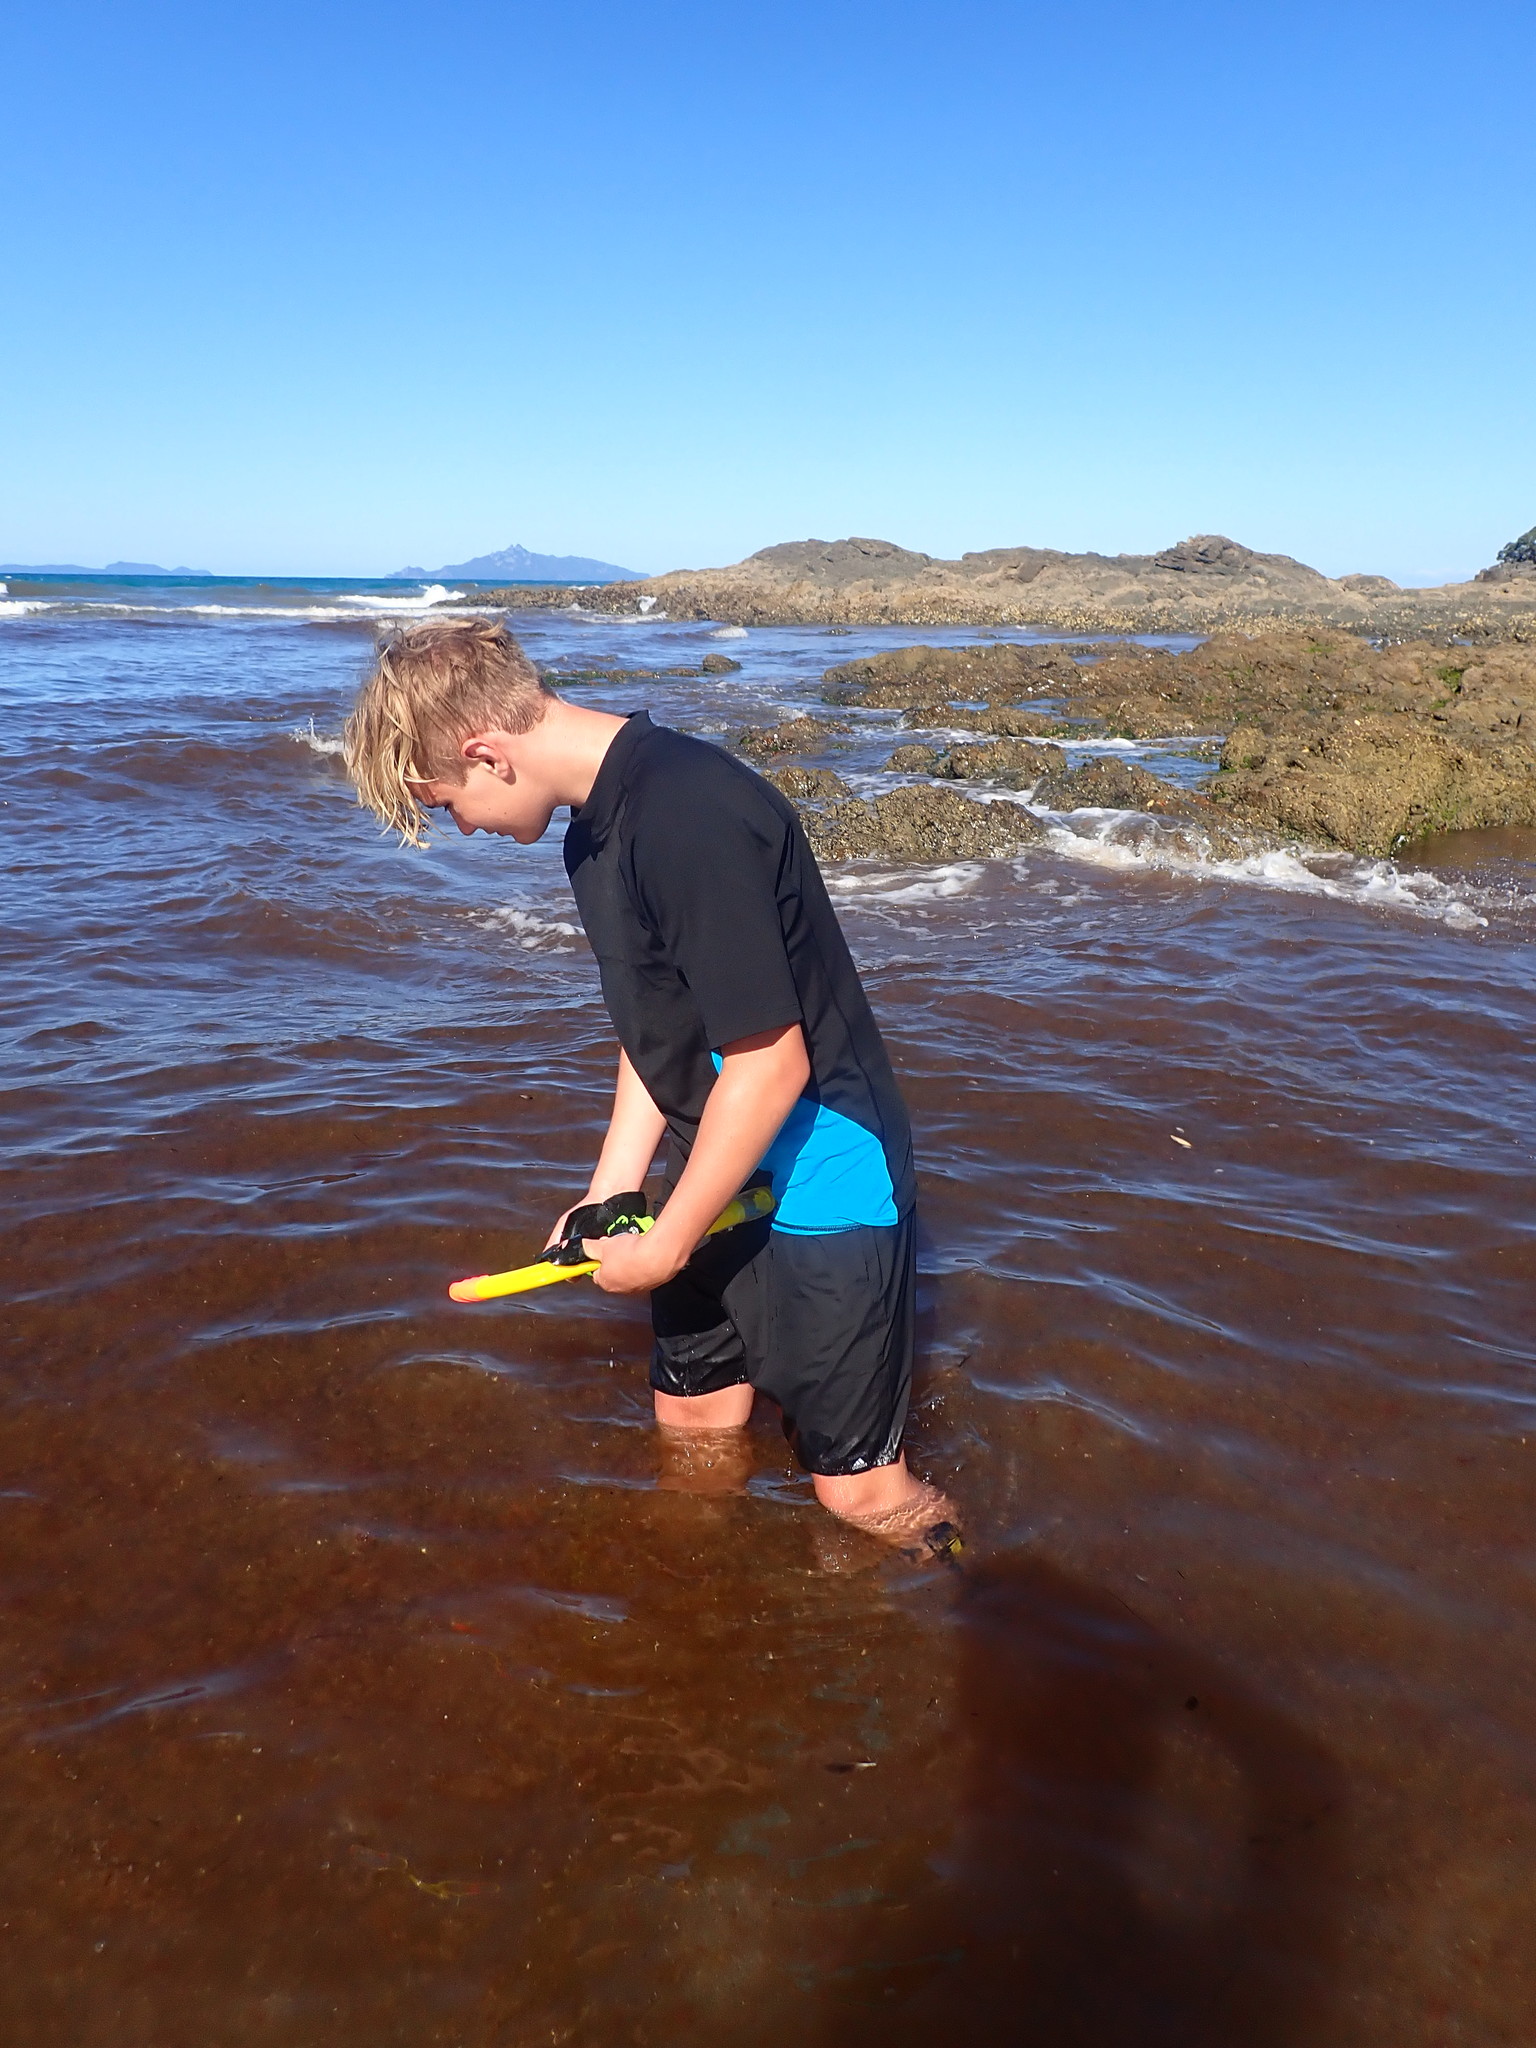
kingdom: Plantae
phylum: Rhodophyta
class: Florideophyceae
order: Ceramiales
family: Spyridiaceae
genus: Spyridia
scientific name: Spyridia filamentosa
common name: Red algae
